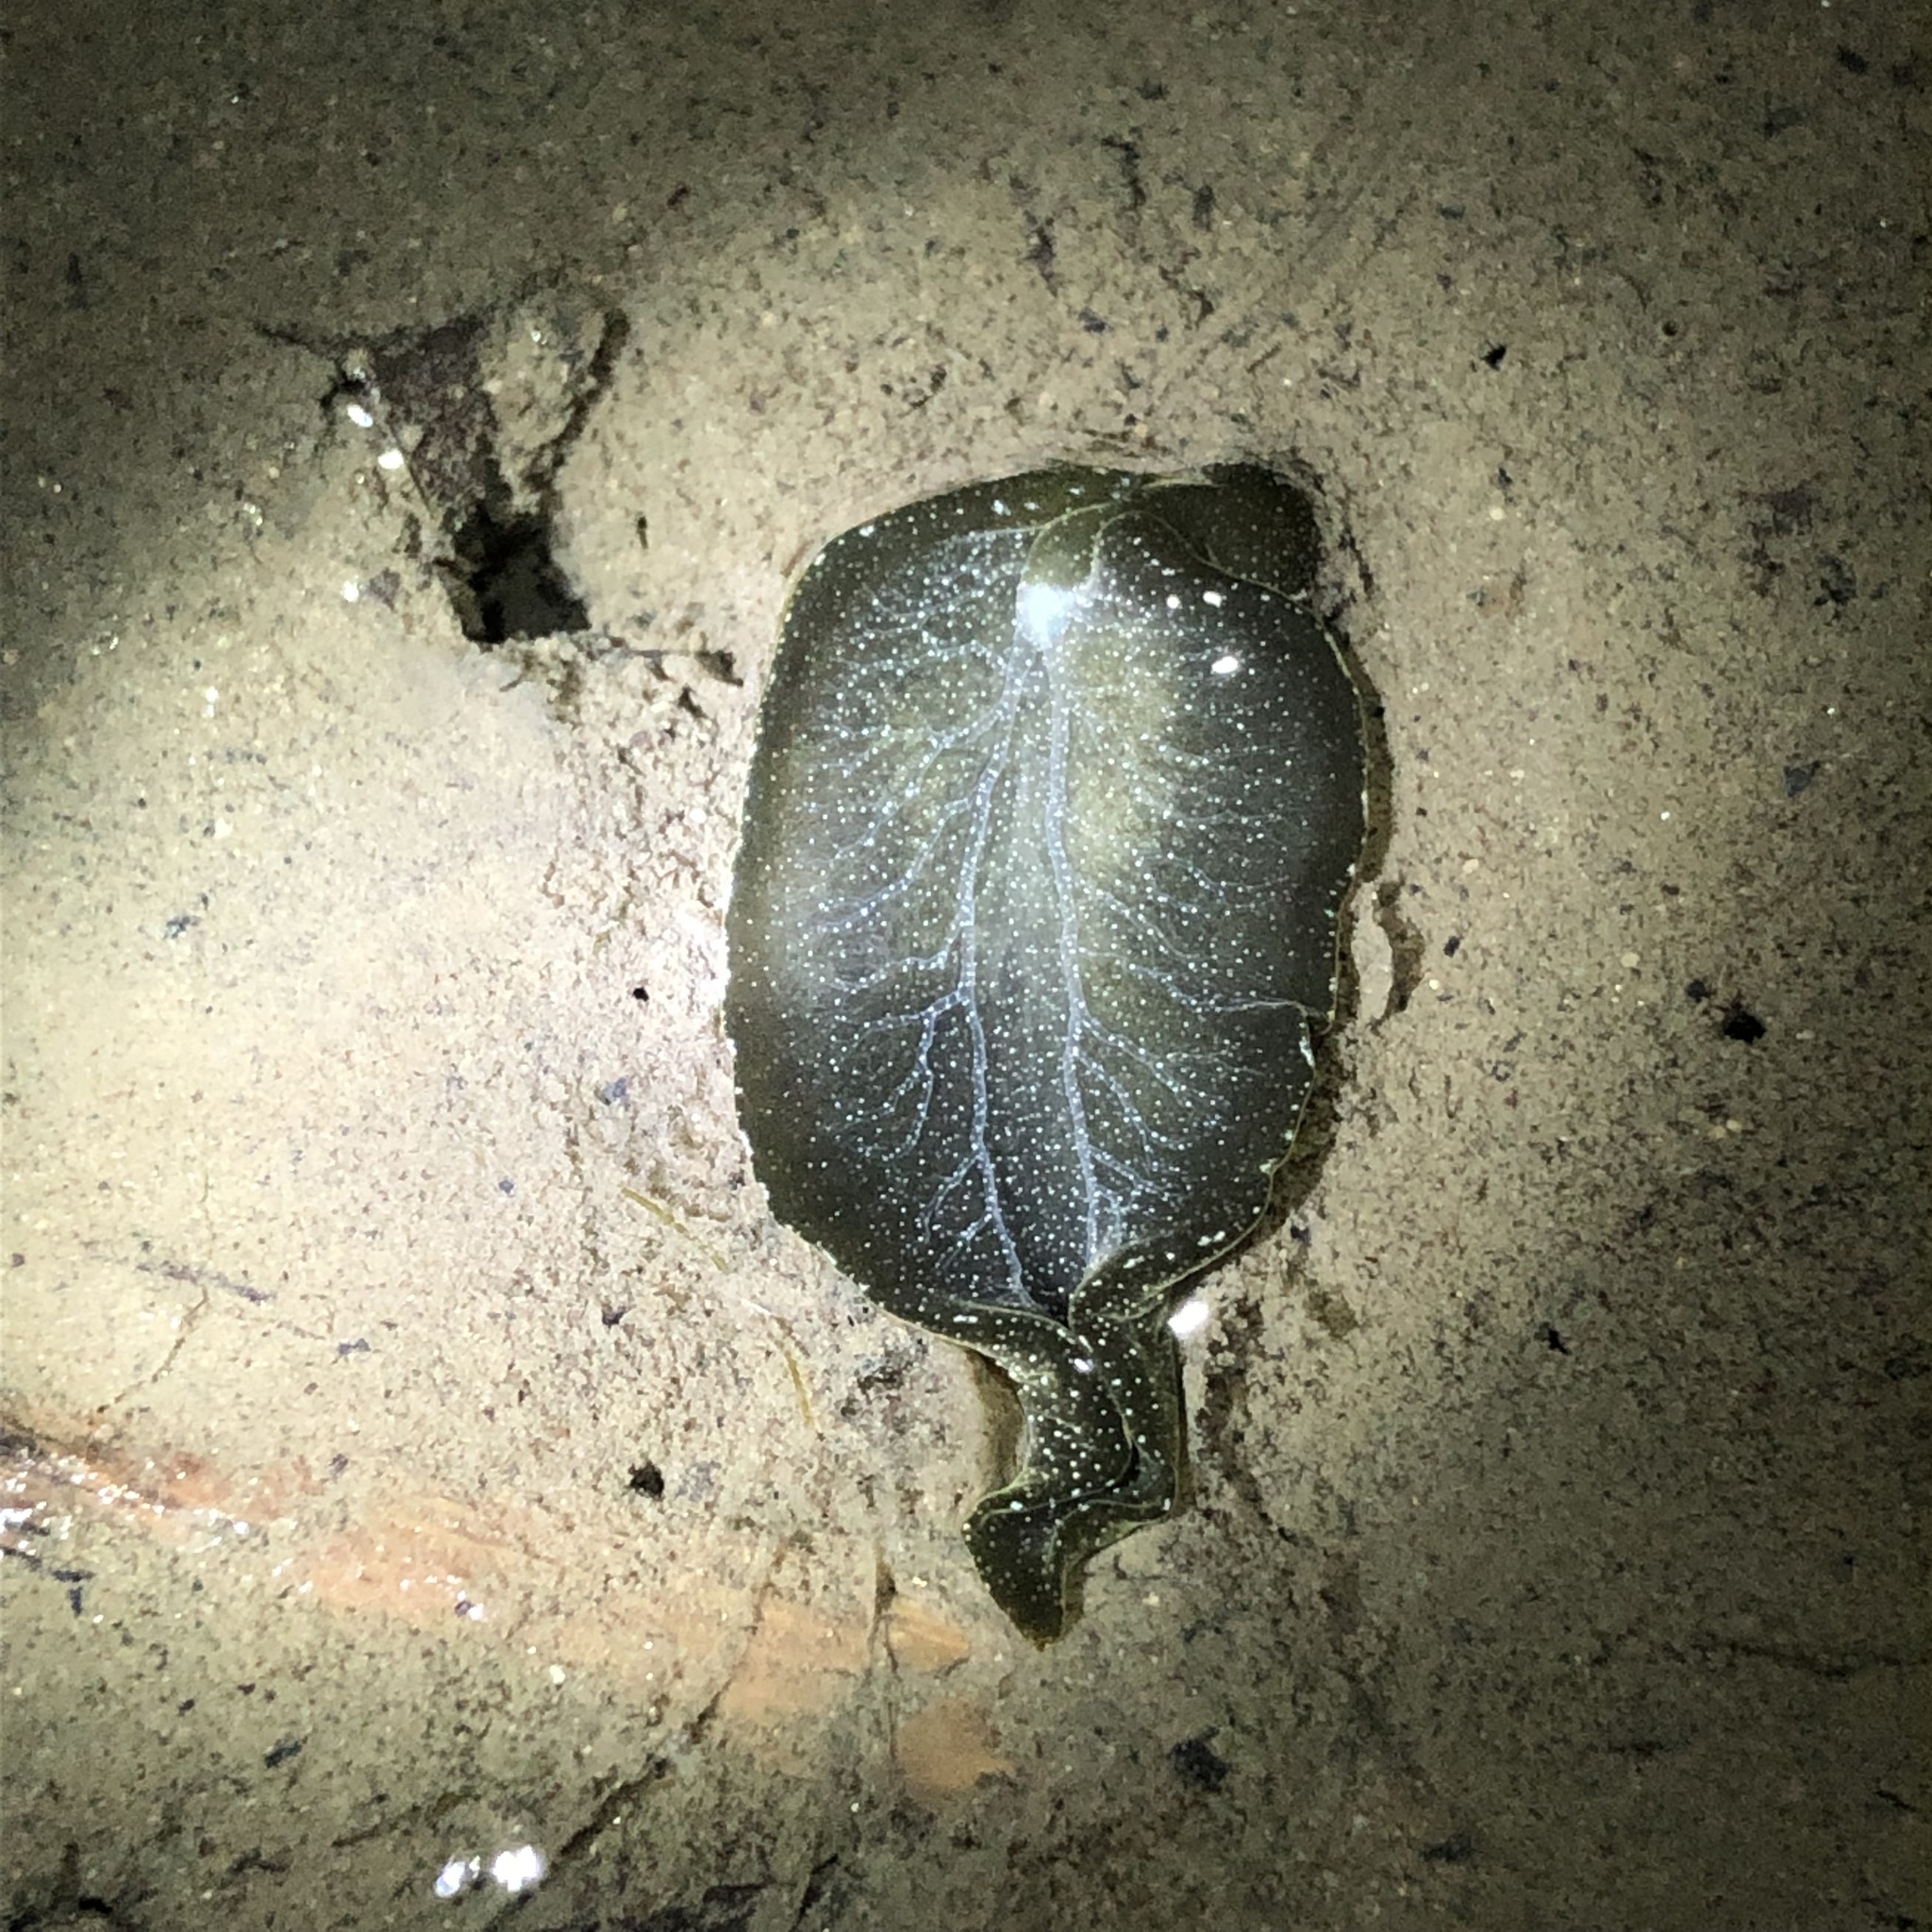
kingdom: Animalia
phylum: Mollusca
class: Gastropoda
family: Plakobranchidae
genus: Elysia
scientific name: Elysia hedgpethi
